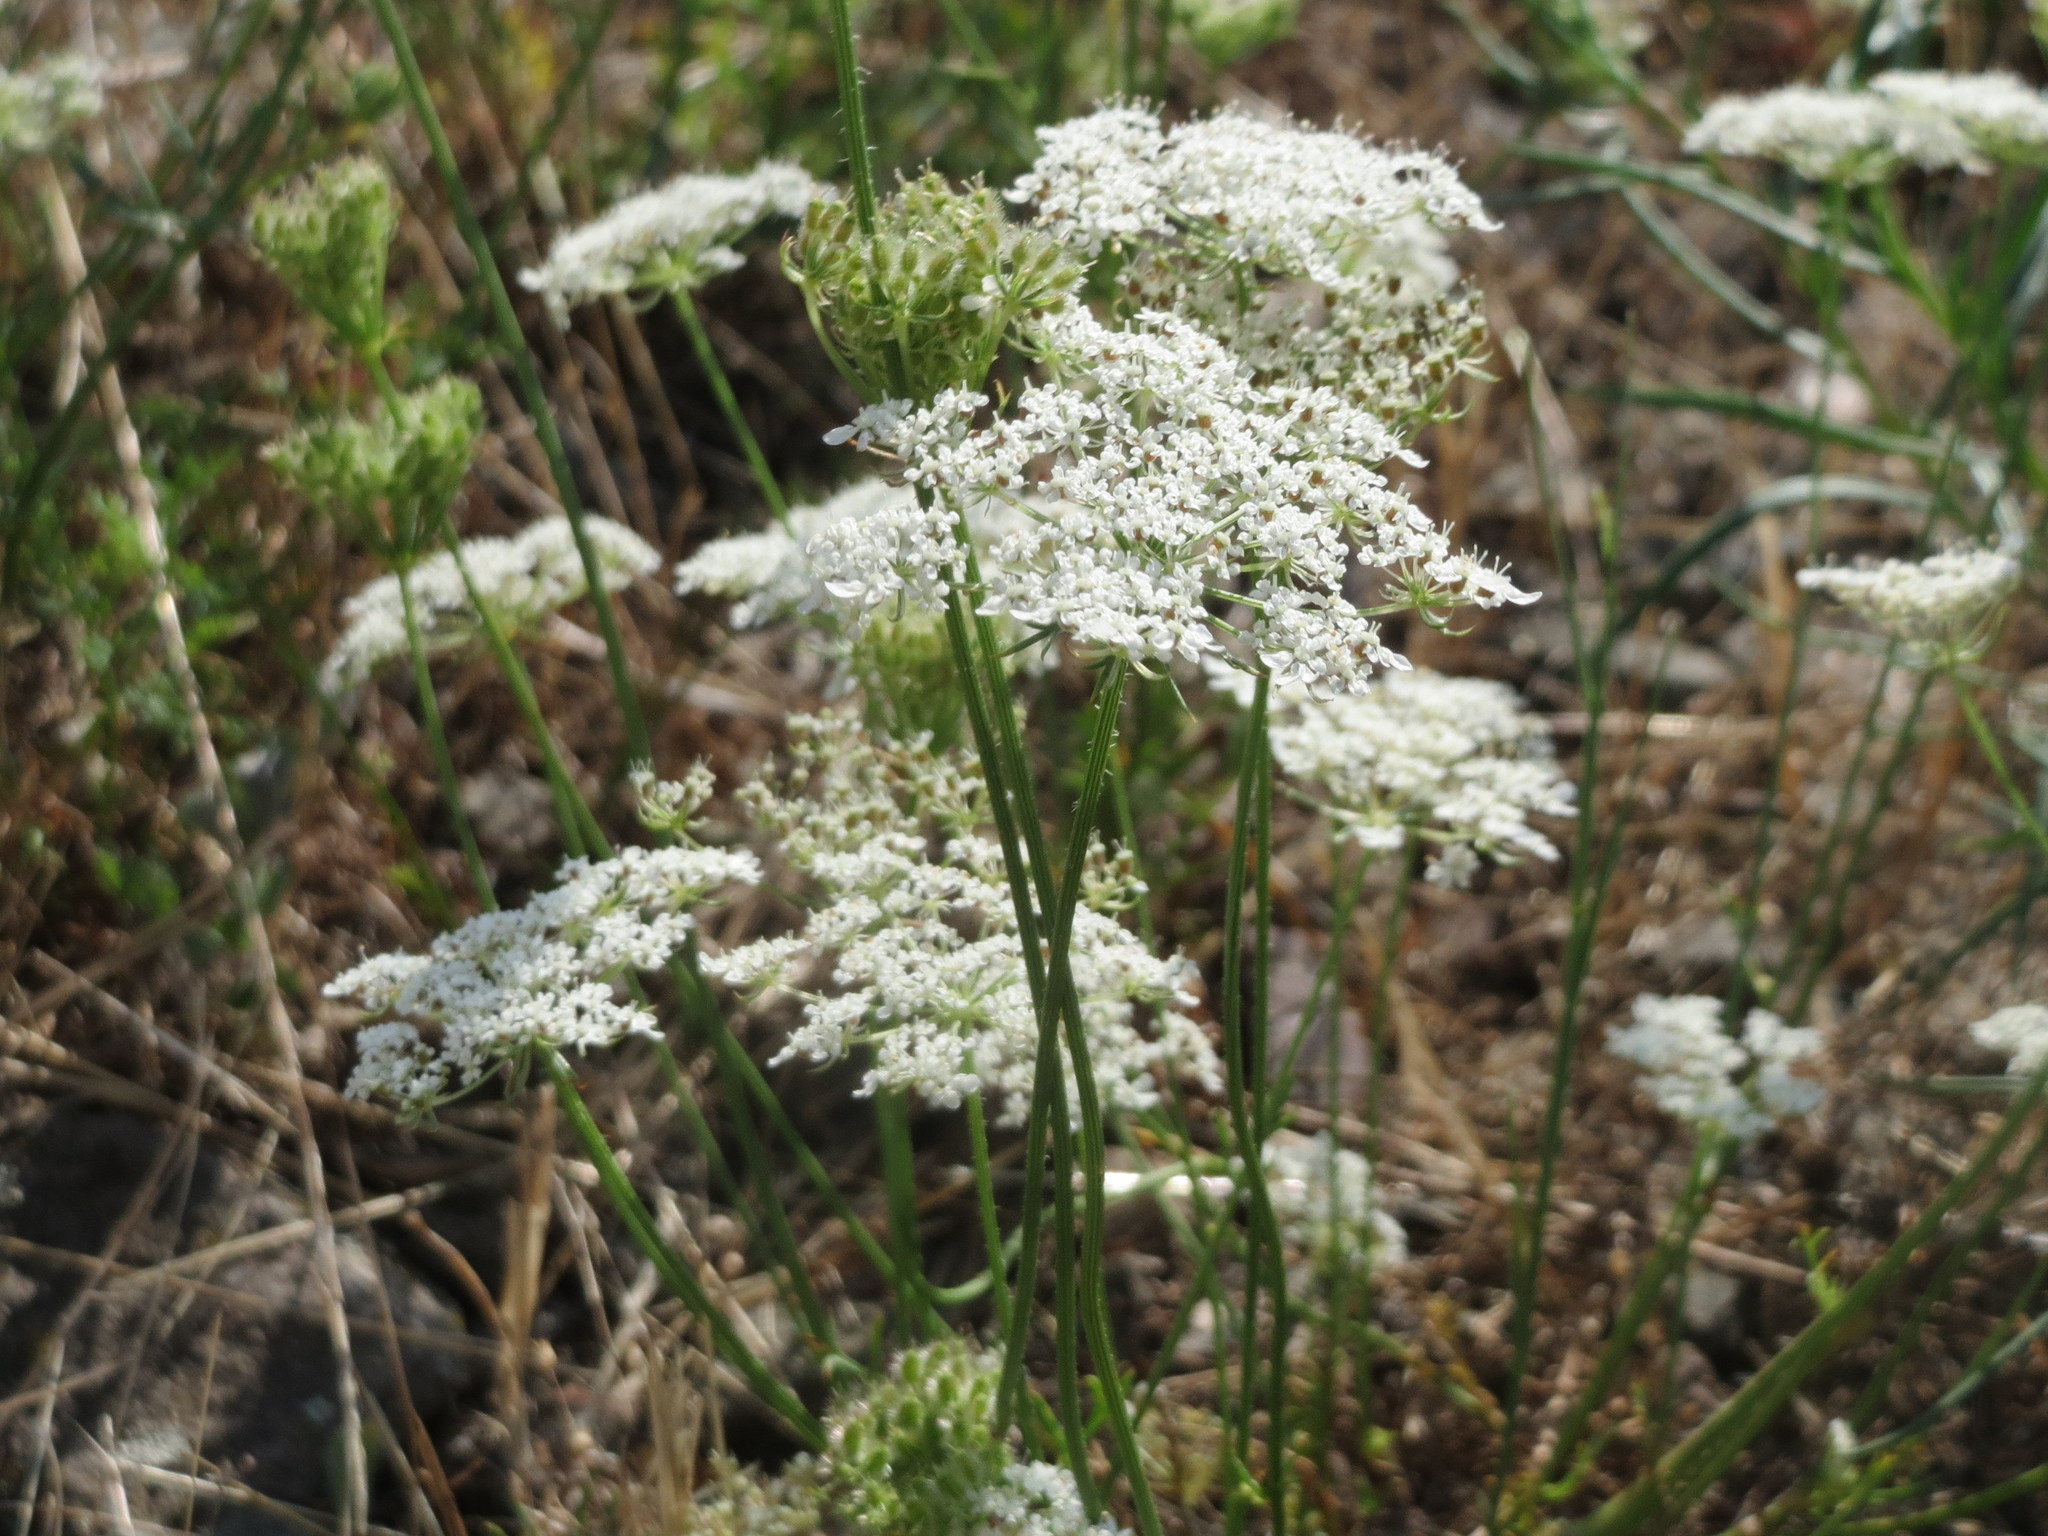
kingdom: Plantae
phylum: Tracheophyta
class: Magnoliopsida
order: Apiales
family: Apiaceae
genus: Daucus
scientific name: Daucus carota
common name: Wild carrot
